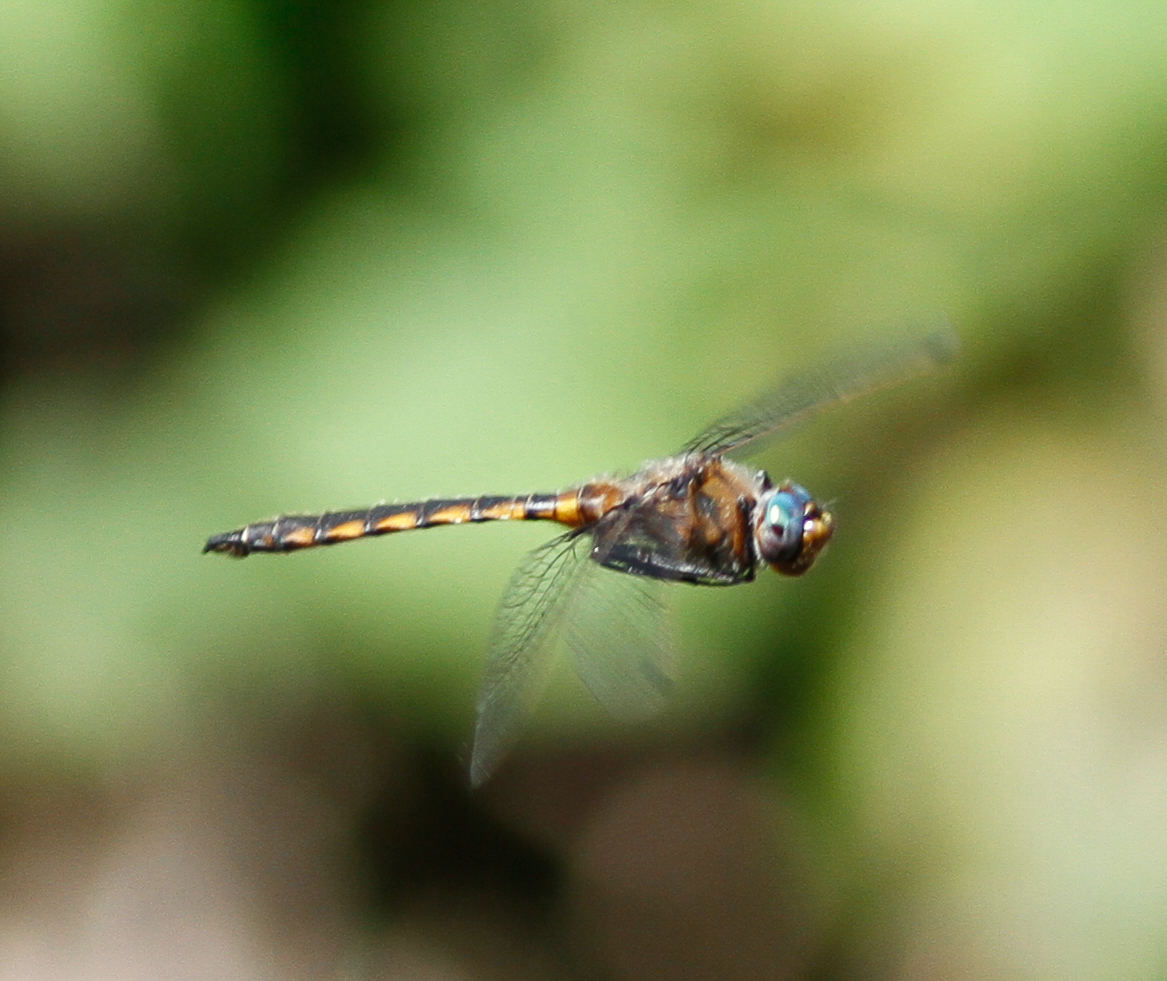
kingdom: Animalia
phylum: Arthropoda
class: Insecta
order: Odonata
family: Corduliidae
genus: Epitheca
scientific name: Epitheca canis
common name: Beaverpond baskettail
